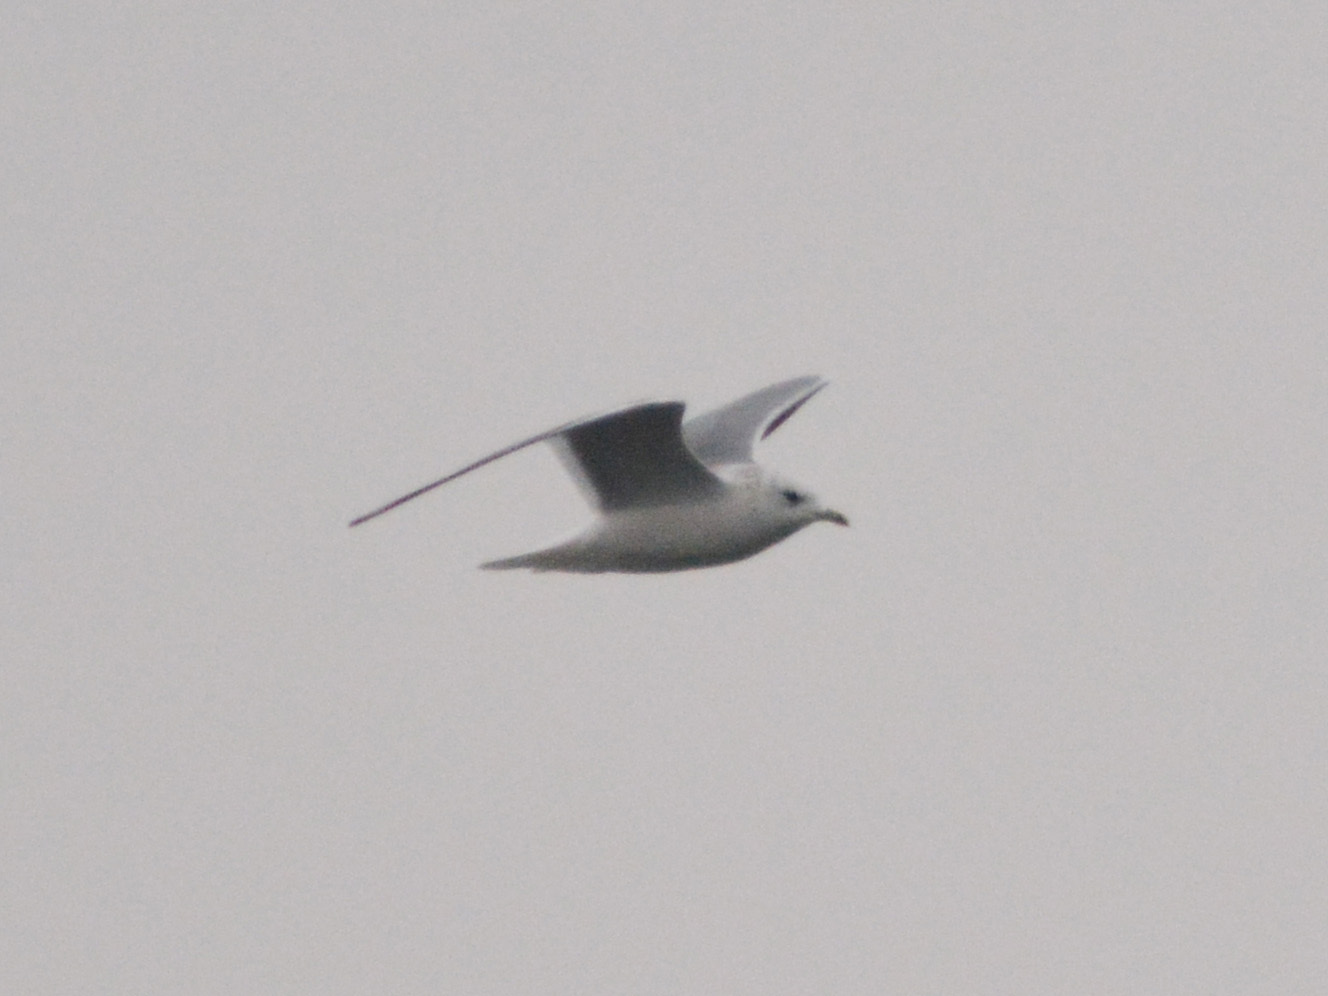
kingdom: Animalia
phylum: Chordata
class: Aves
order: Charadriiformes
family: Laridae
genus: Larus
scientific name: Larus canus
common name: Mew gull
